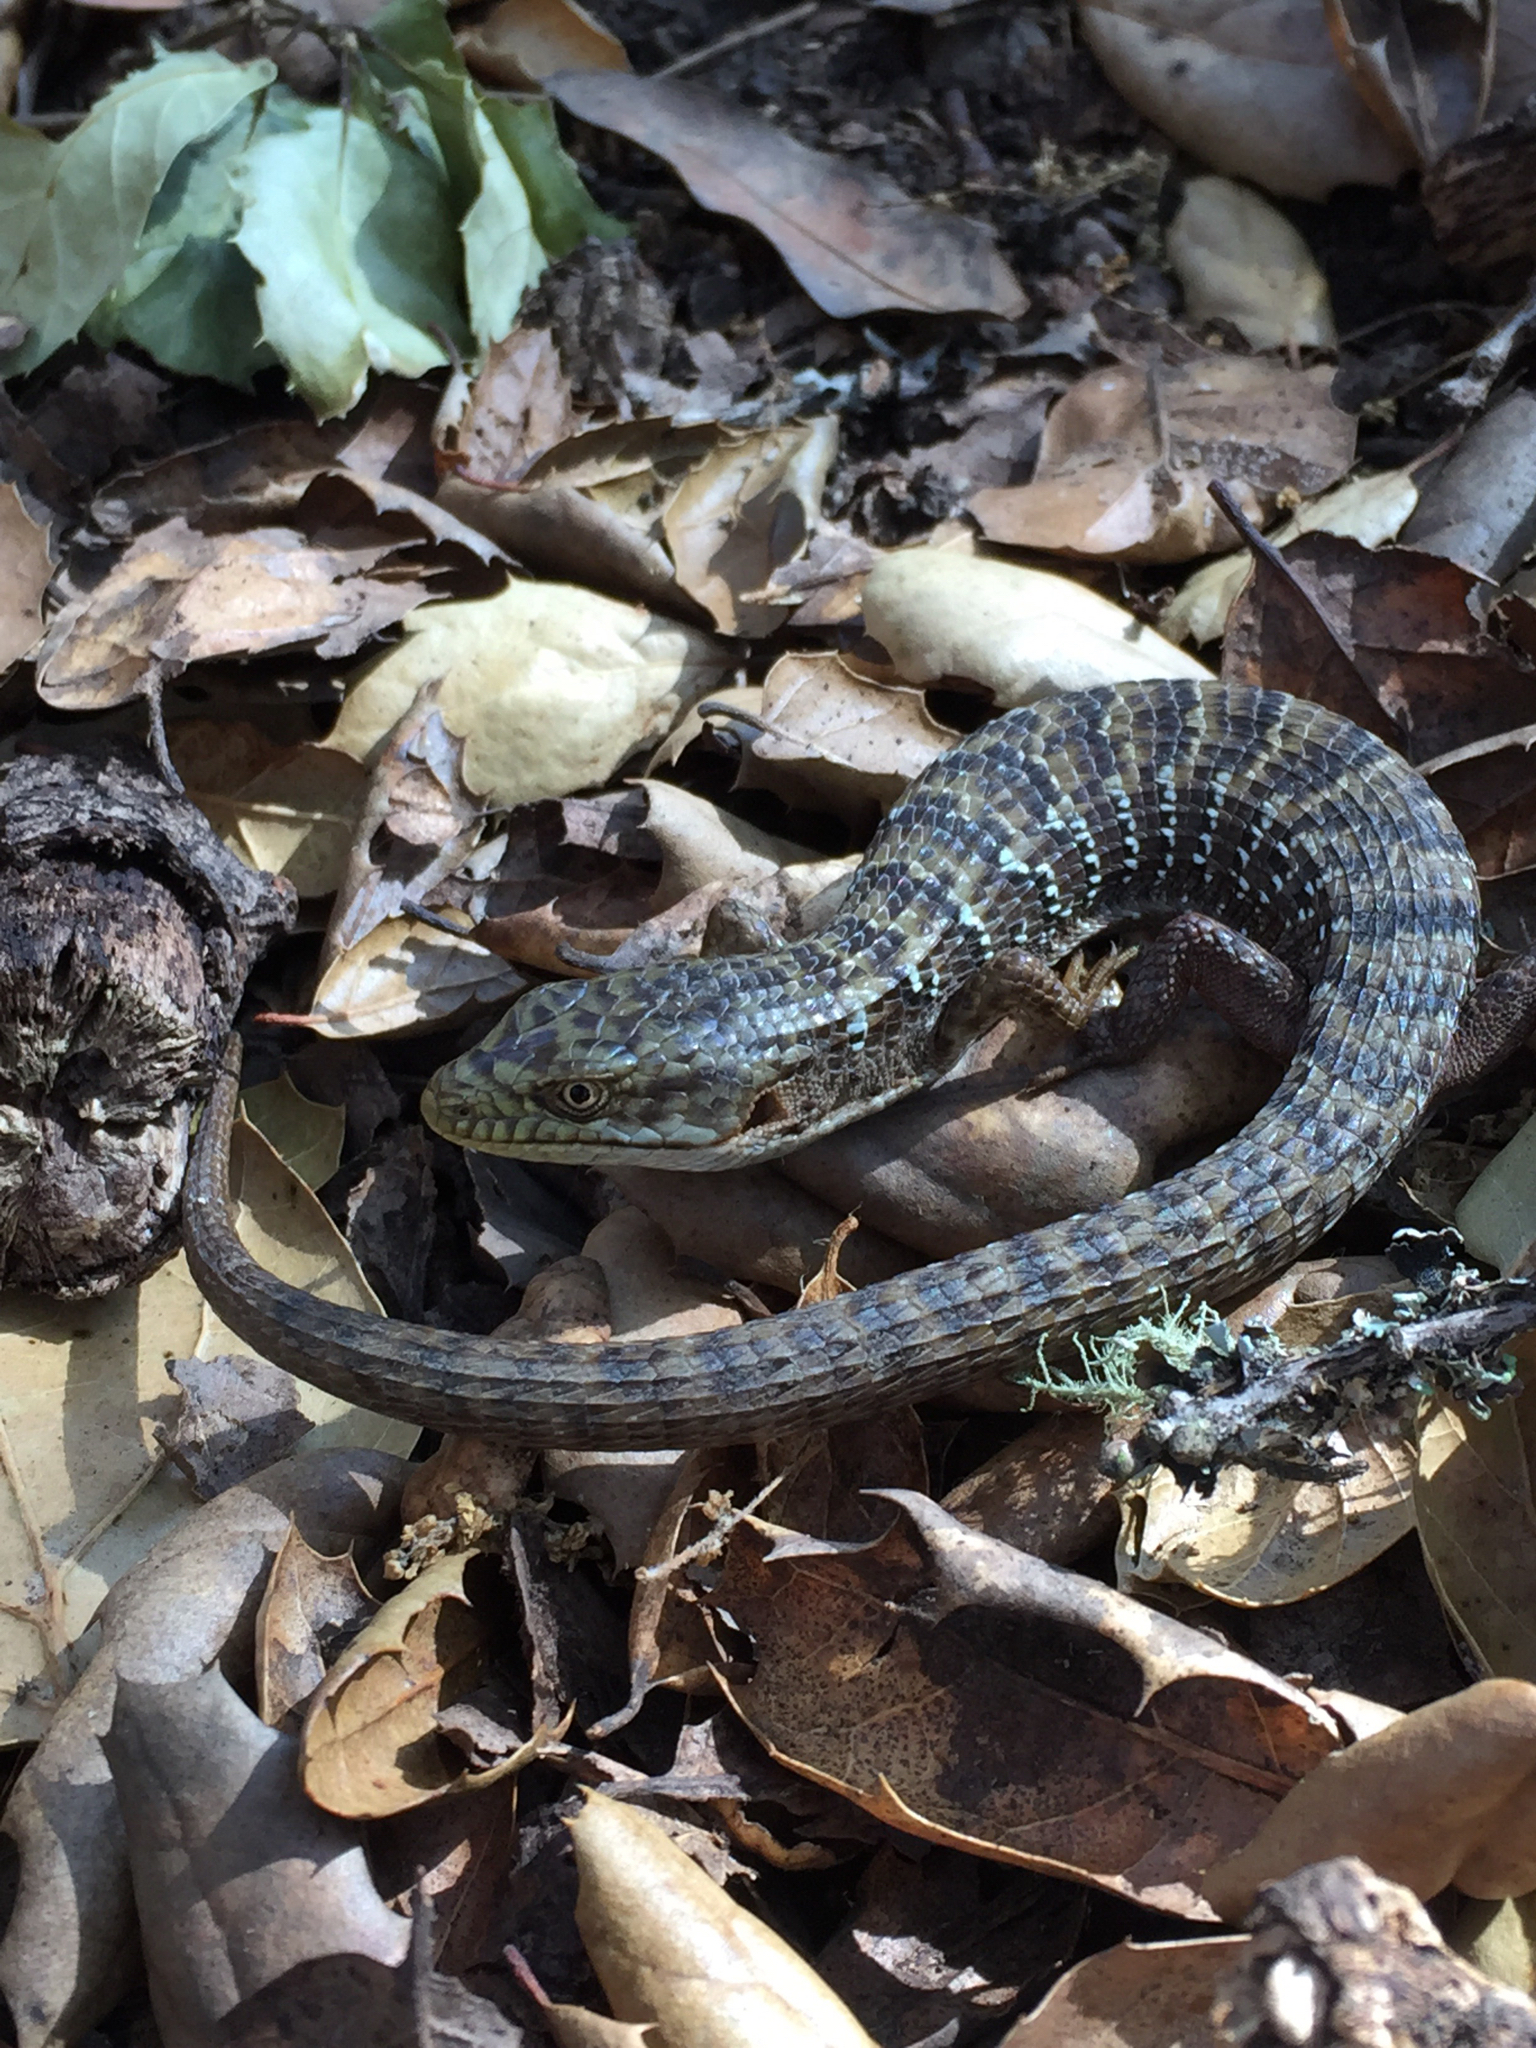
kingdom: Animalia
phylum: Chordata
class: Squamata
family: Anguidae
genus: Elgaria
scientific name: Elgaria multicarinata
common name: Southern alligator lizard
